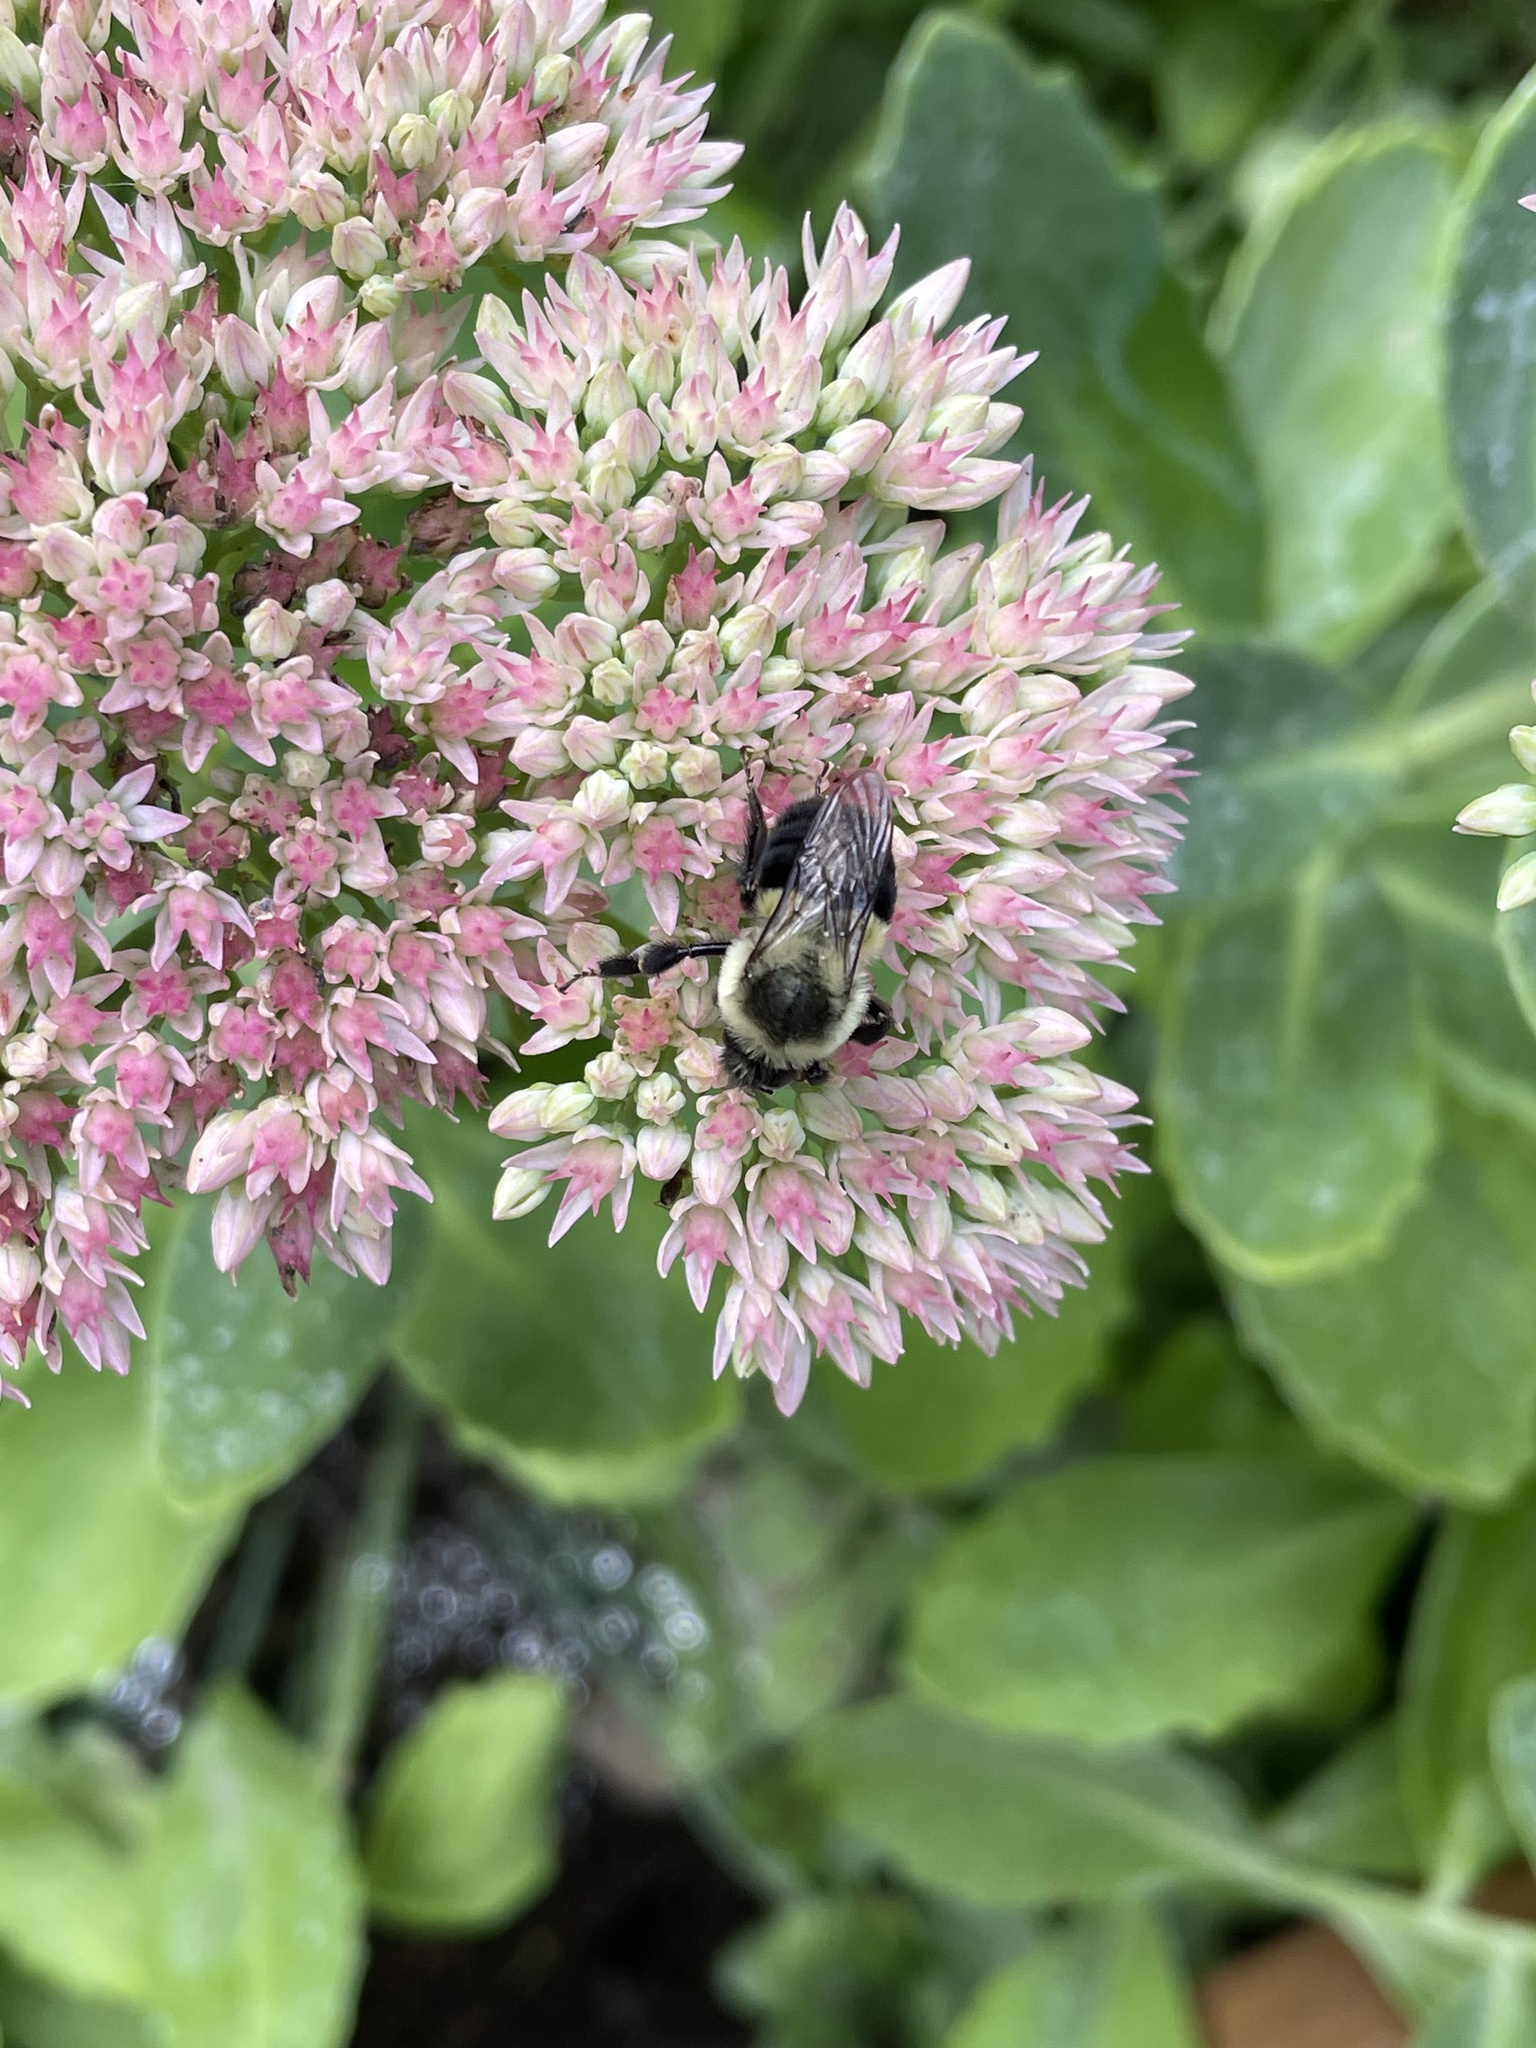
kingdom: Animalia
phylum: Arthropoda
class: Insecta
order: Hymenoptera
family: Apidae
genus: Bombus
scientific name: Bombus impatiens
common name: Common eastern bumble bee
